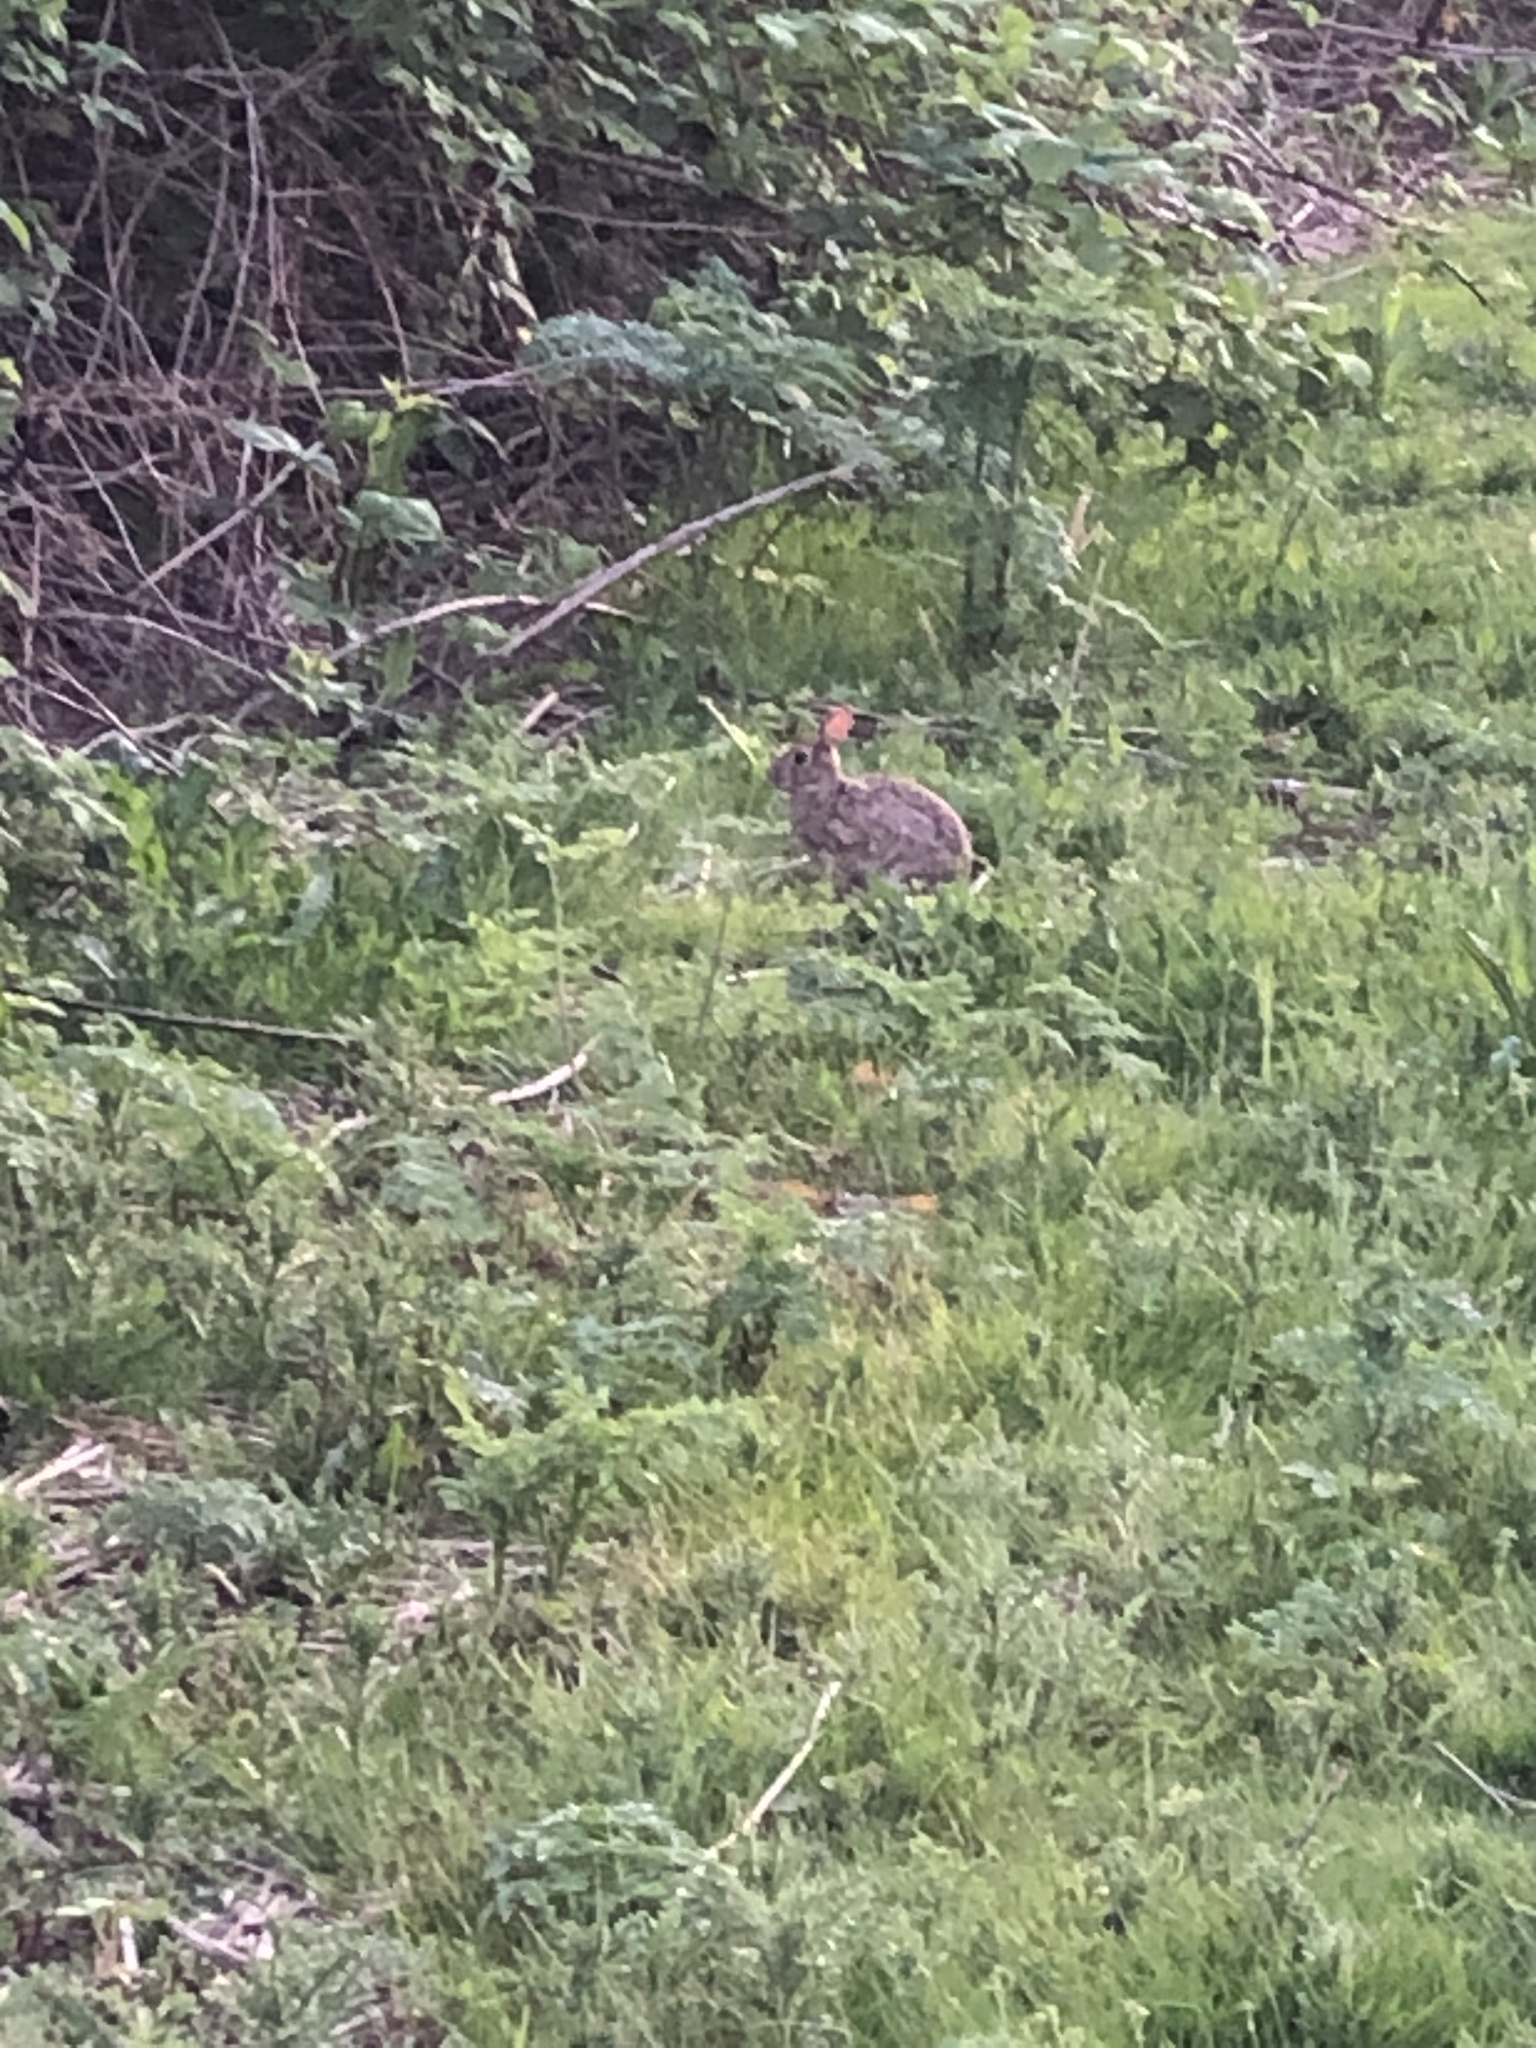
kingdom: Animalia
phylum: Chordata
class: Mammalia
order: Lagomorpha
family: Leporidae
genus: Sylvilagus
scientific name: Sylvilagus floridanus
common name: Eastern cottontail
